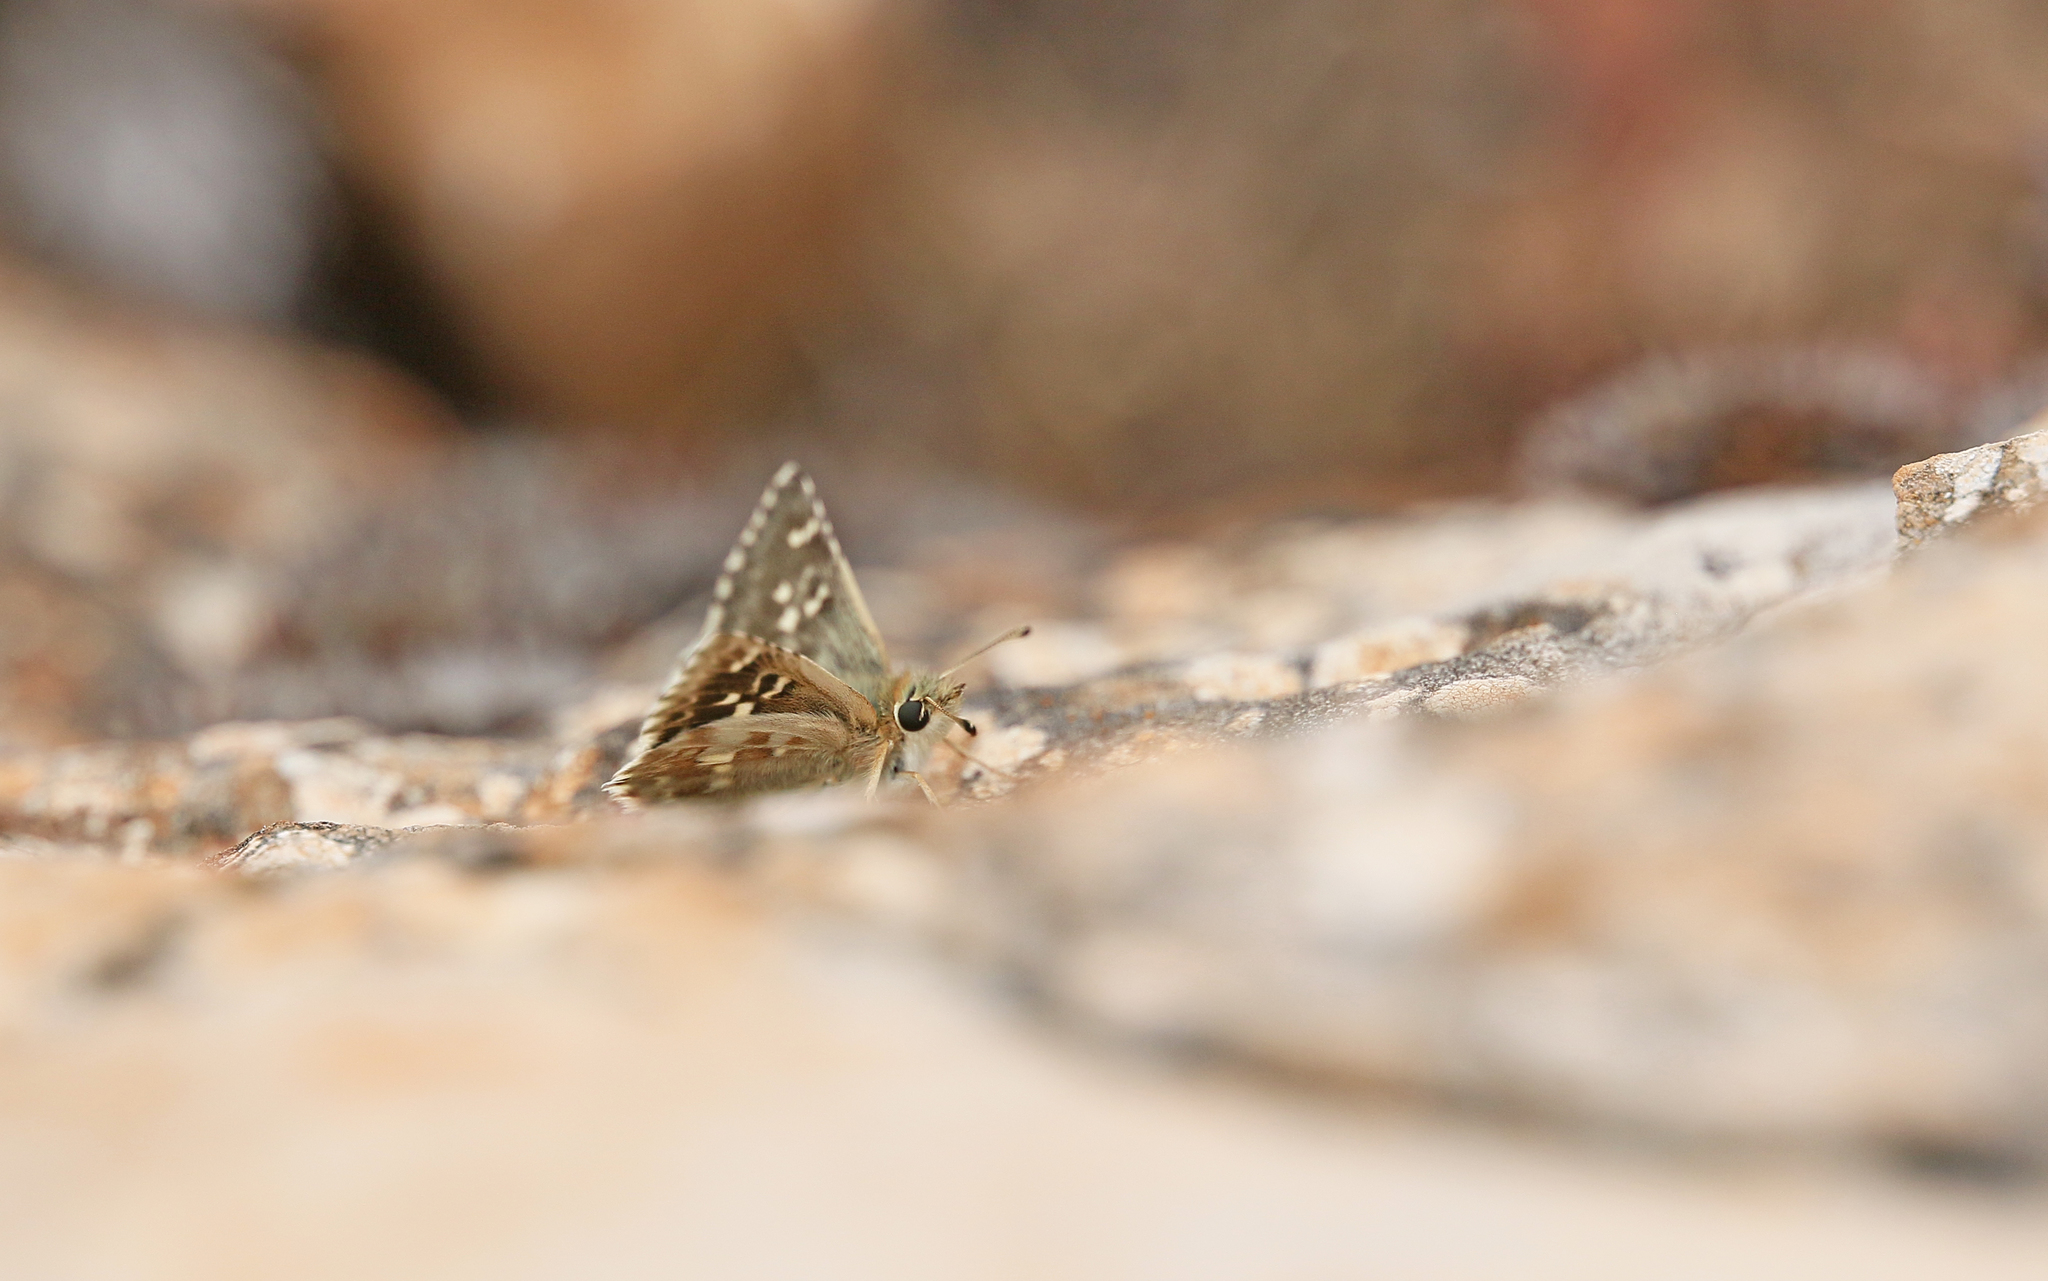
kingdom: Animalia
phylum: Arthropoda
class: Insecta
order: Lepidoptera
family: Hesperiidae
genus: Syrichtus
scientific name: Syrichtus Muschampia proto
